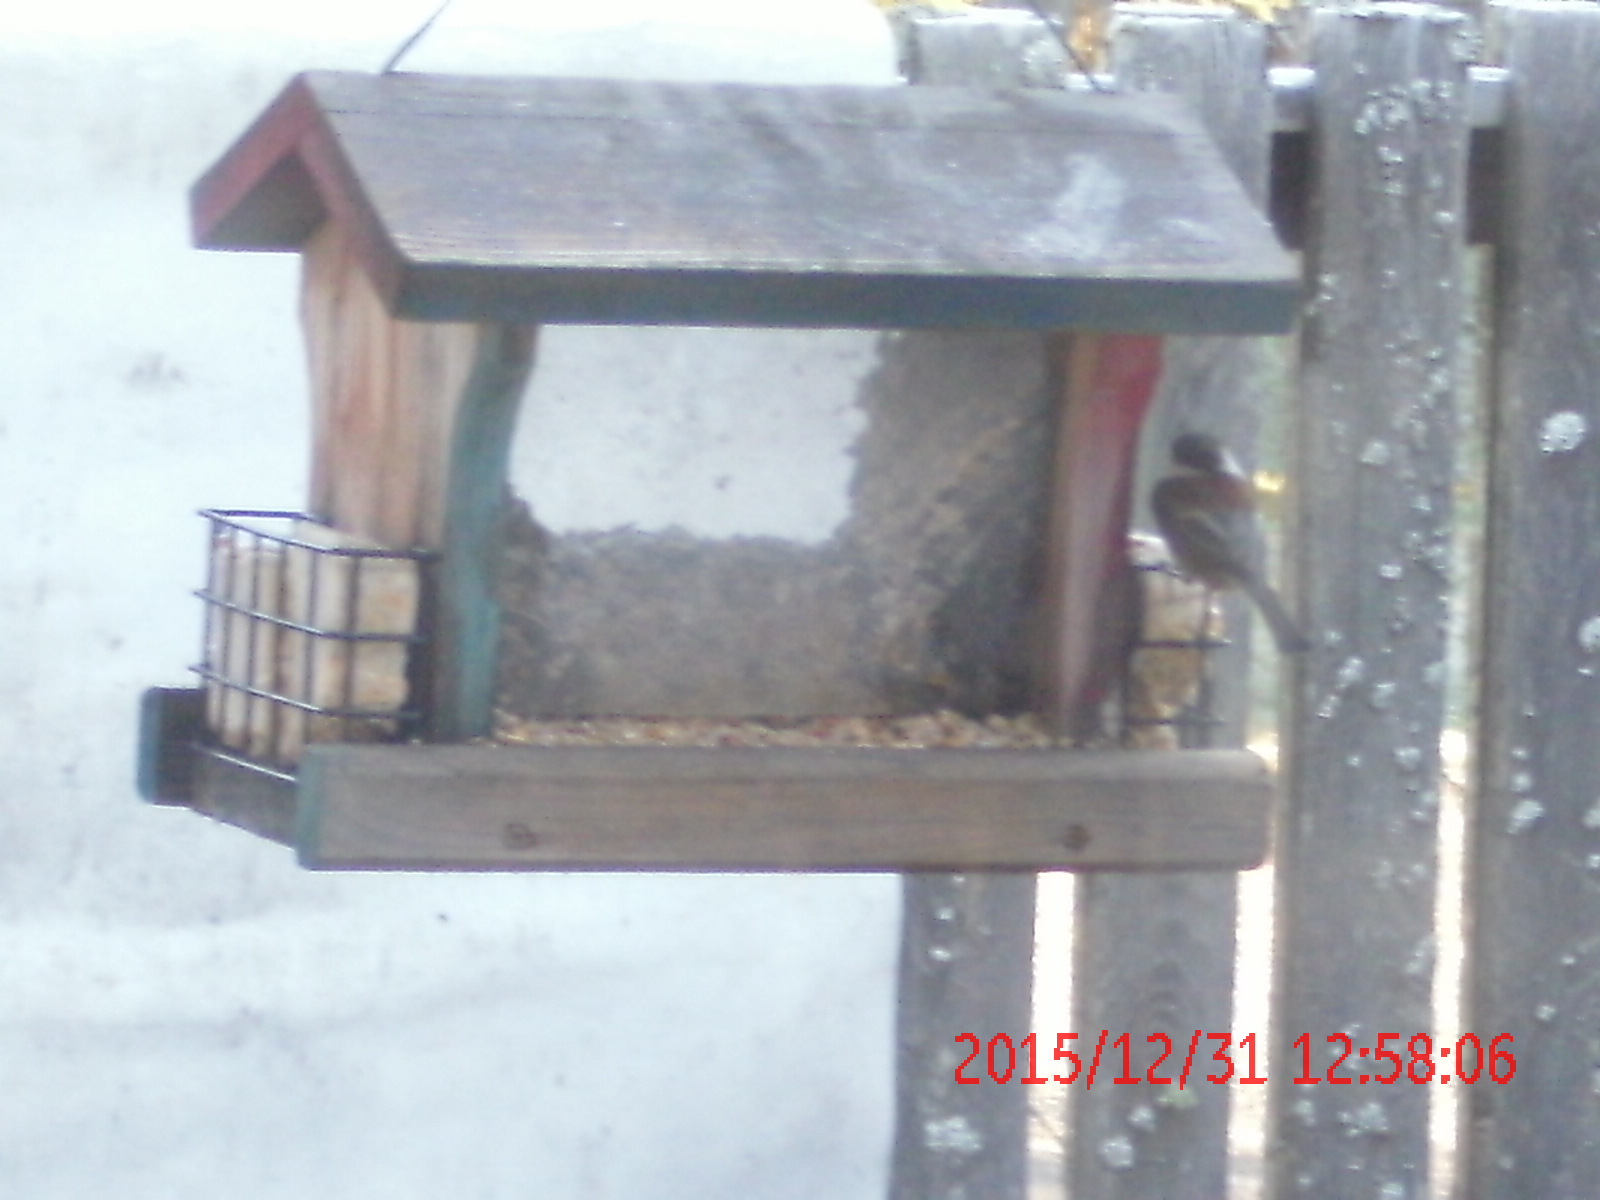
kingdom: Animalia
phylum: Chordata
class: Aves
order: Passeriformes
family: Paridae
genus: Poecile
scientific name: Poecile rufescens
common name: Chestnut-backed chickadee
